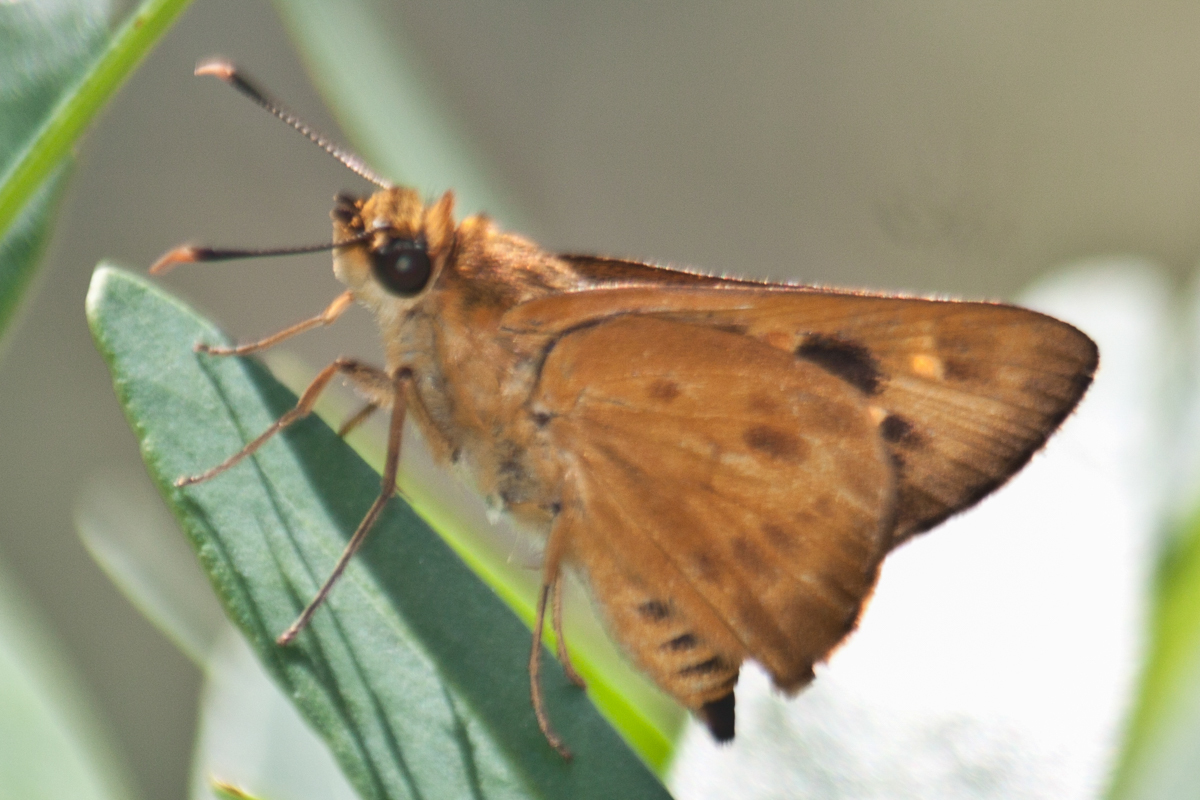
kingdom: Animalia
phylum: Arthropoda
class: Insecta
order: Lepidoptera
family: Hesperiidae
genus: Thoressa
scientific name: Thoressa masoni
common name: Golden ace
